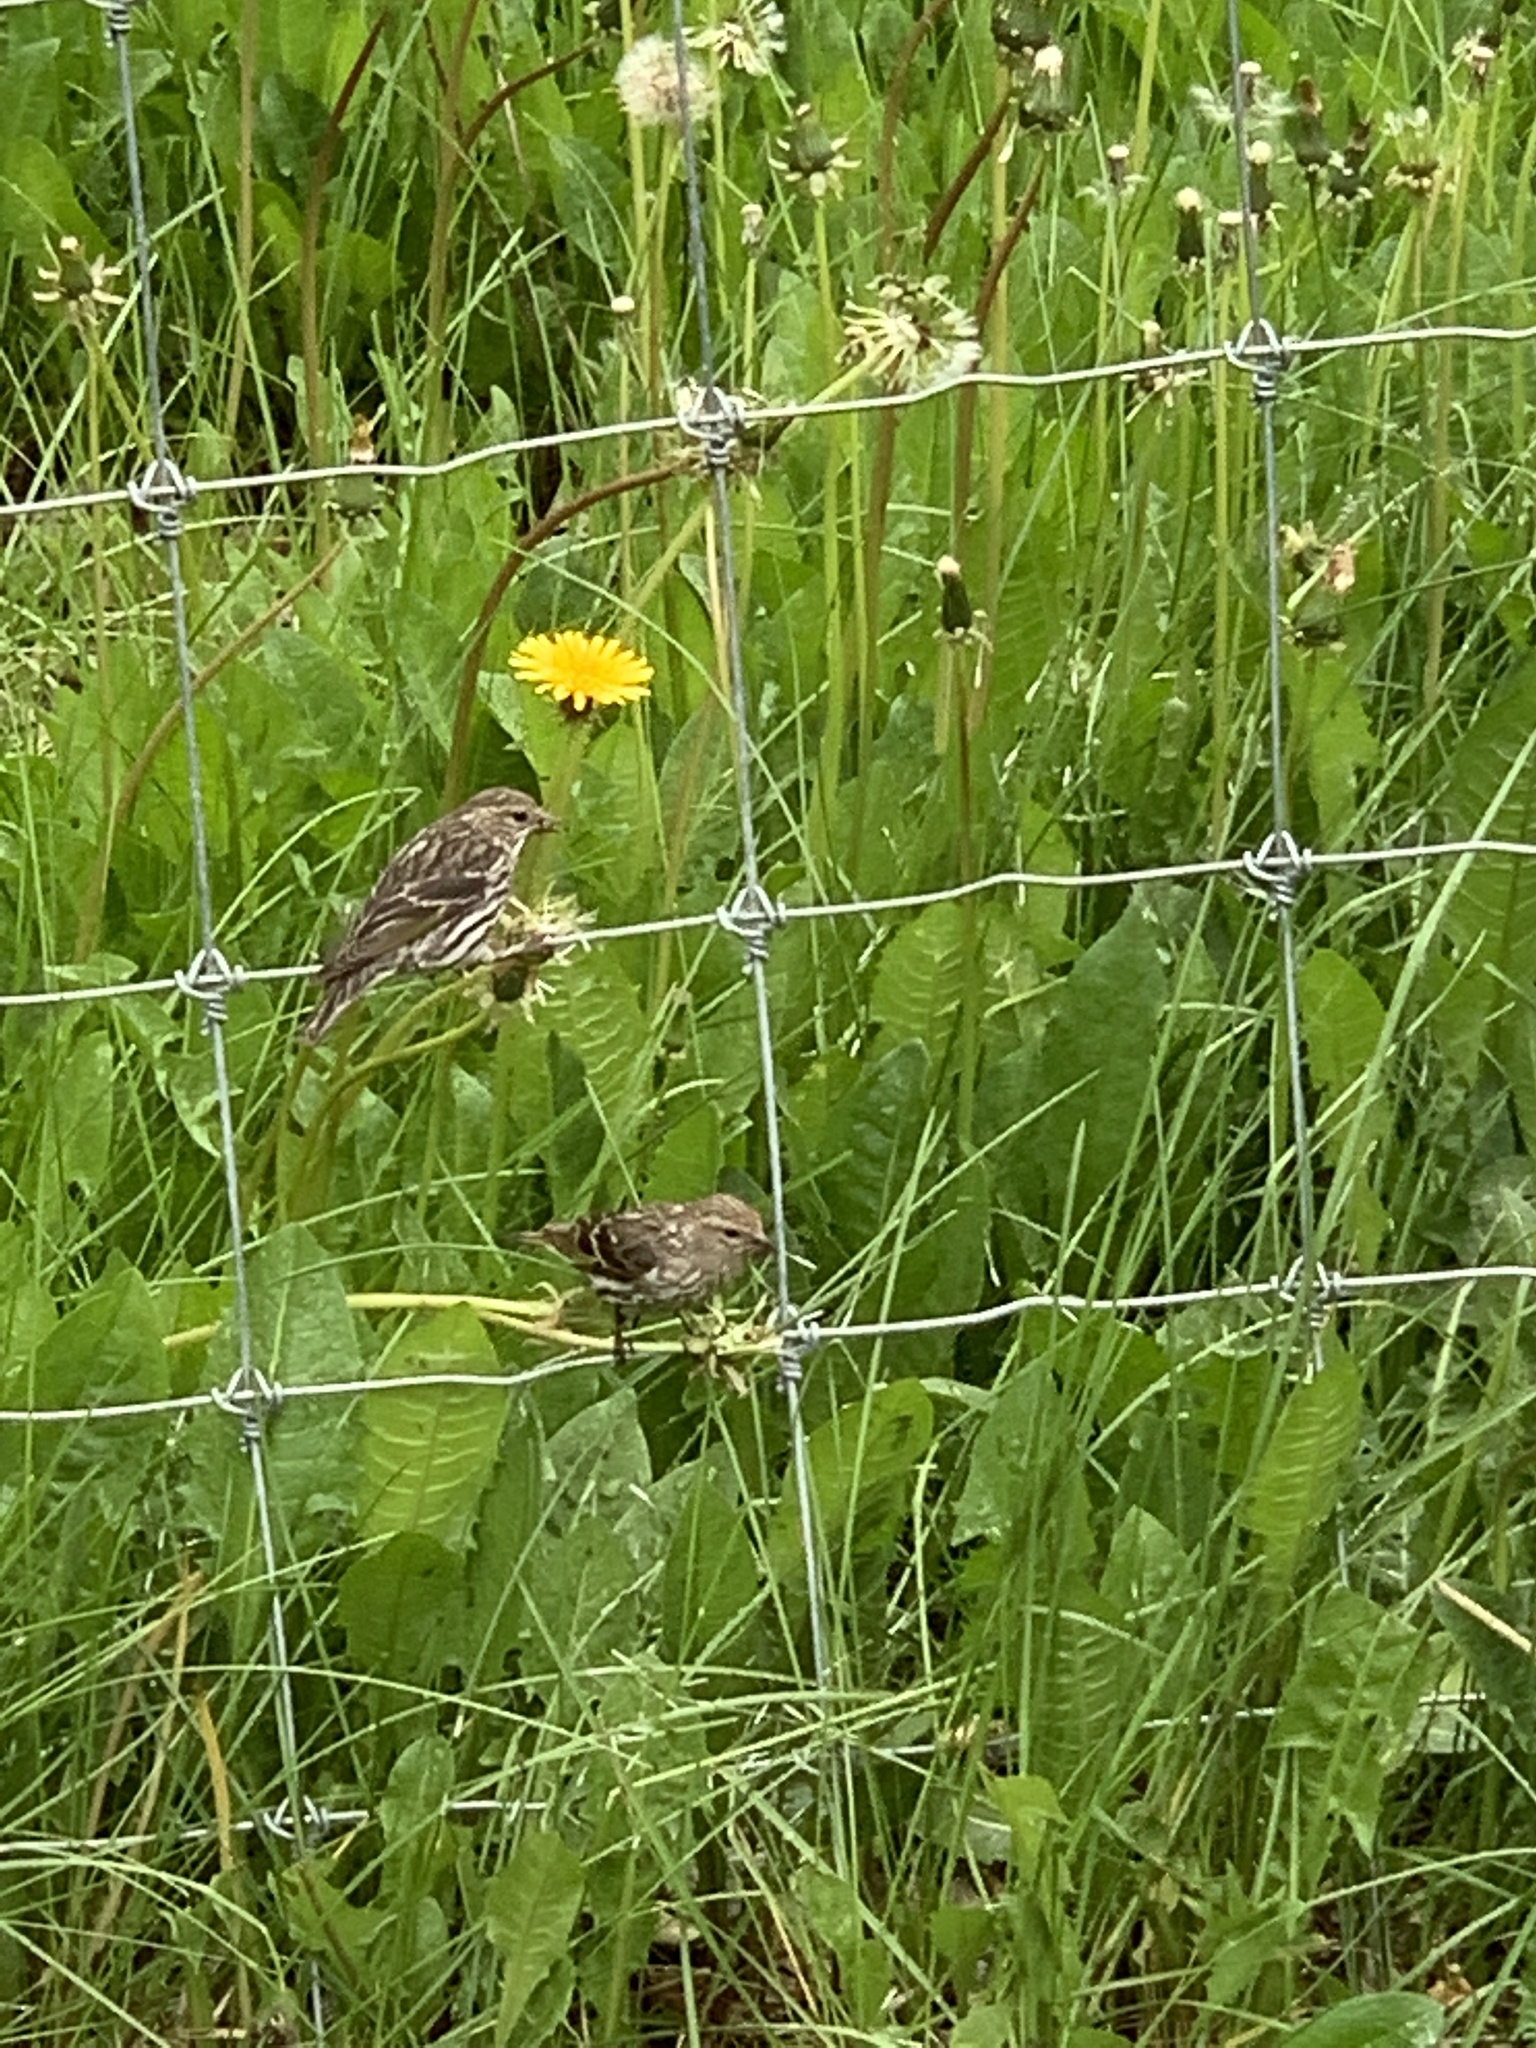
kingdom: Animalia
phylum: Chordata
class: Aves
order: Passeriformes
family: Fringillidae
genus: Spinus
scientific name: Spinus pinus
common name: Pine siskin
